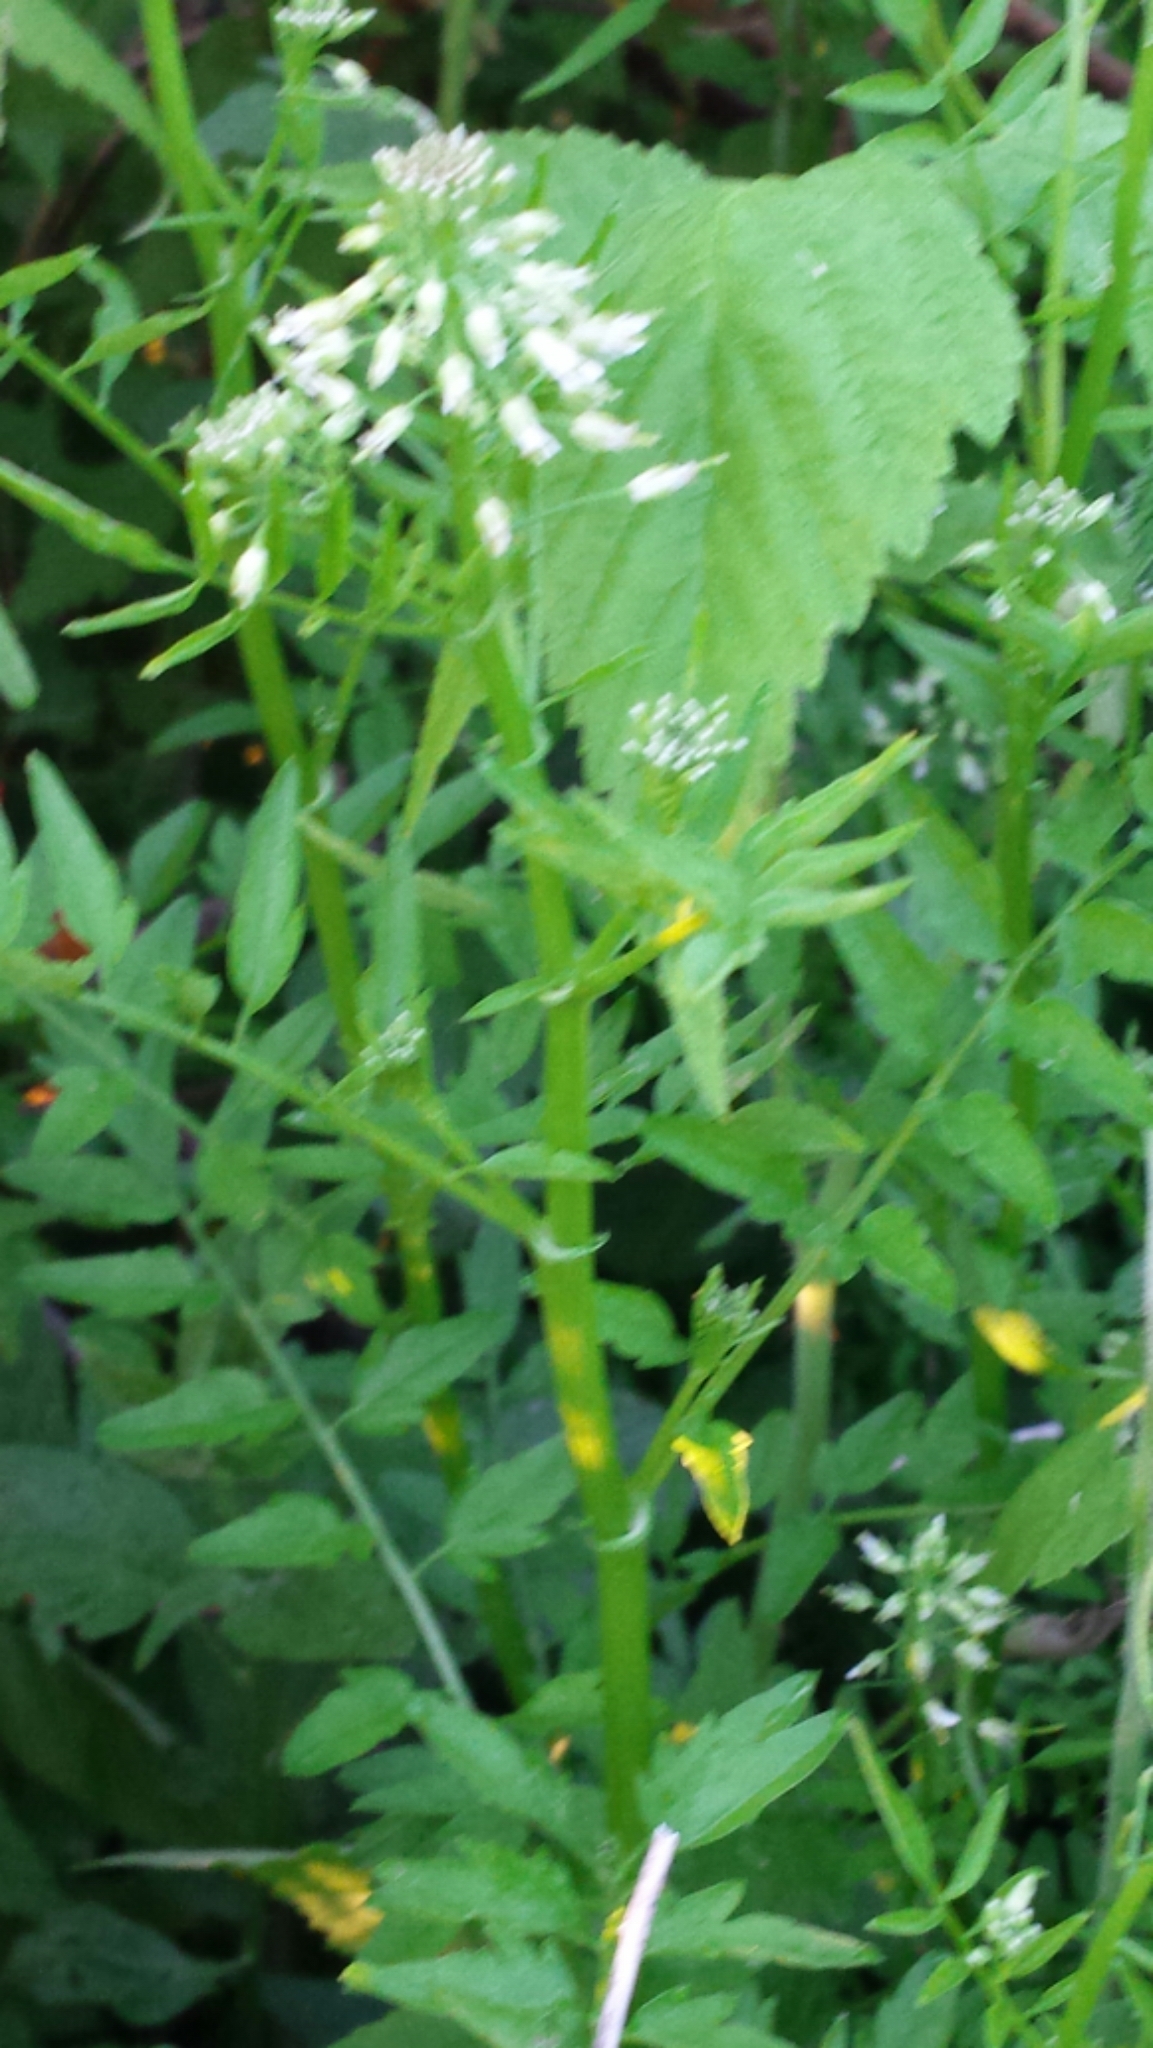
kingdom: Plantae
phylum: Tracheophyta
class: Magnoliopsida
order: Brassicales
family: Brassicaceae
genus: Cardamine
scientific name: Cardamine impatiens
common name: Narrow-leaved bitter-cress
